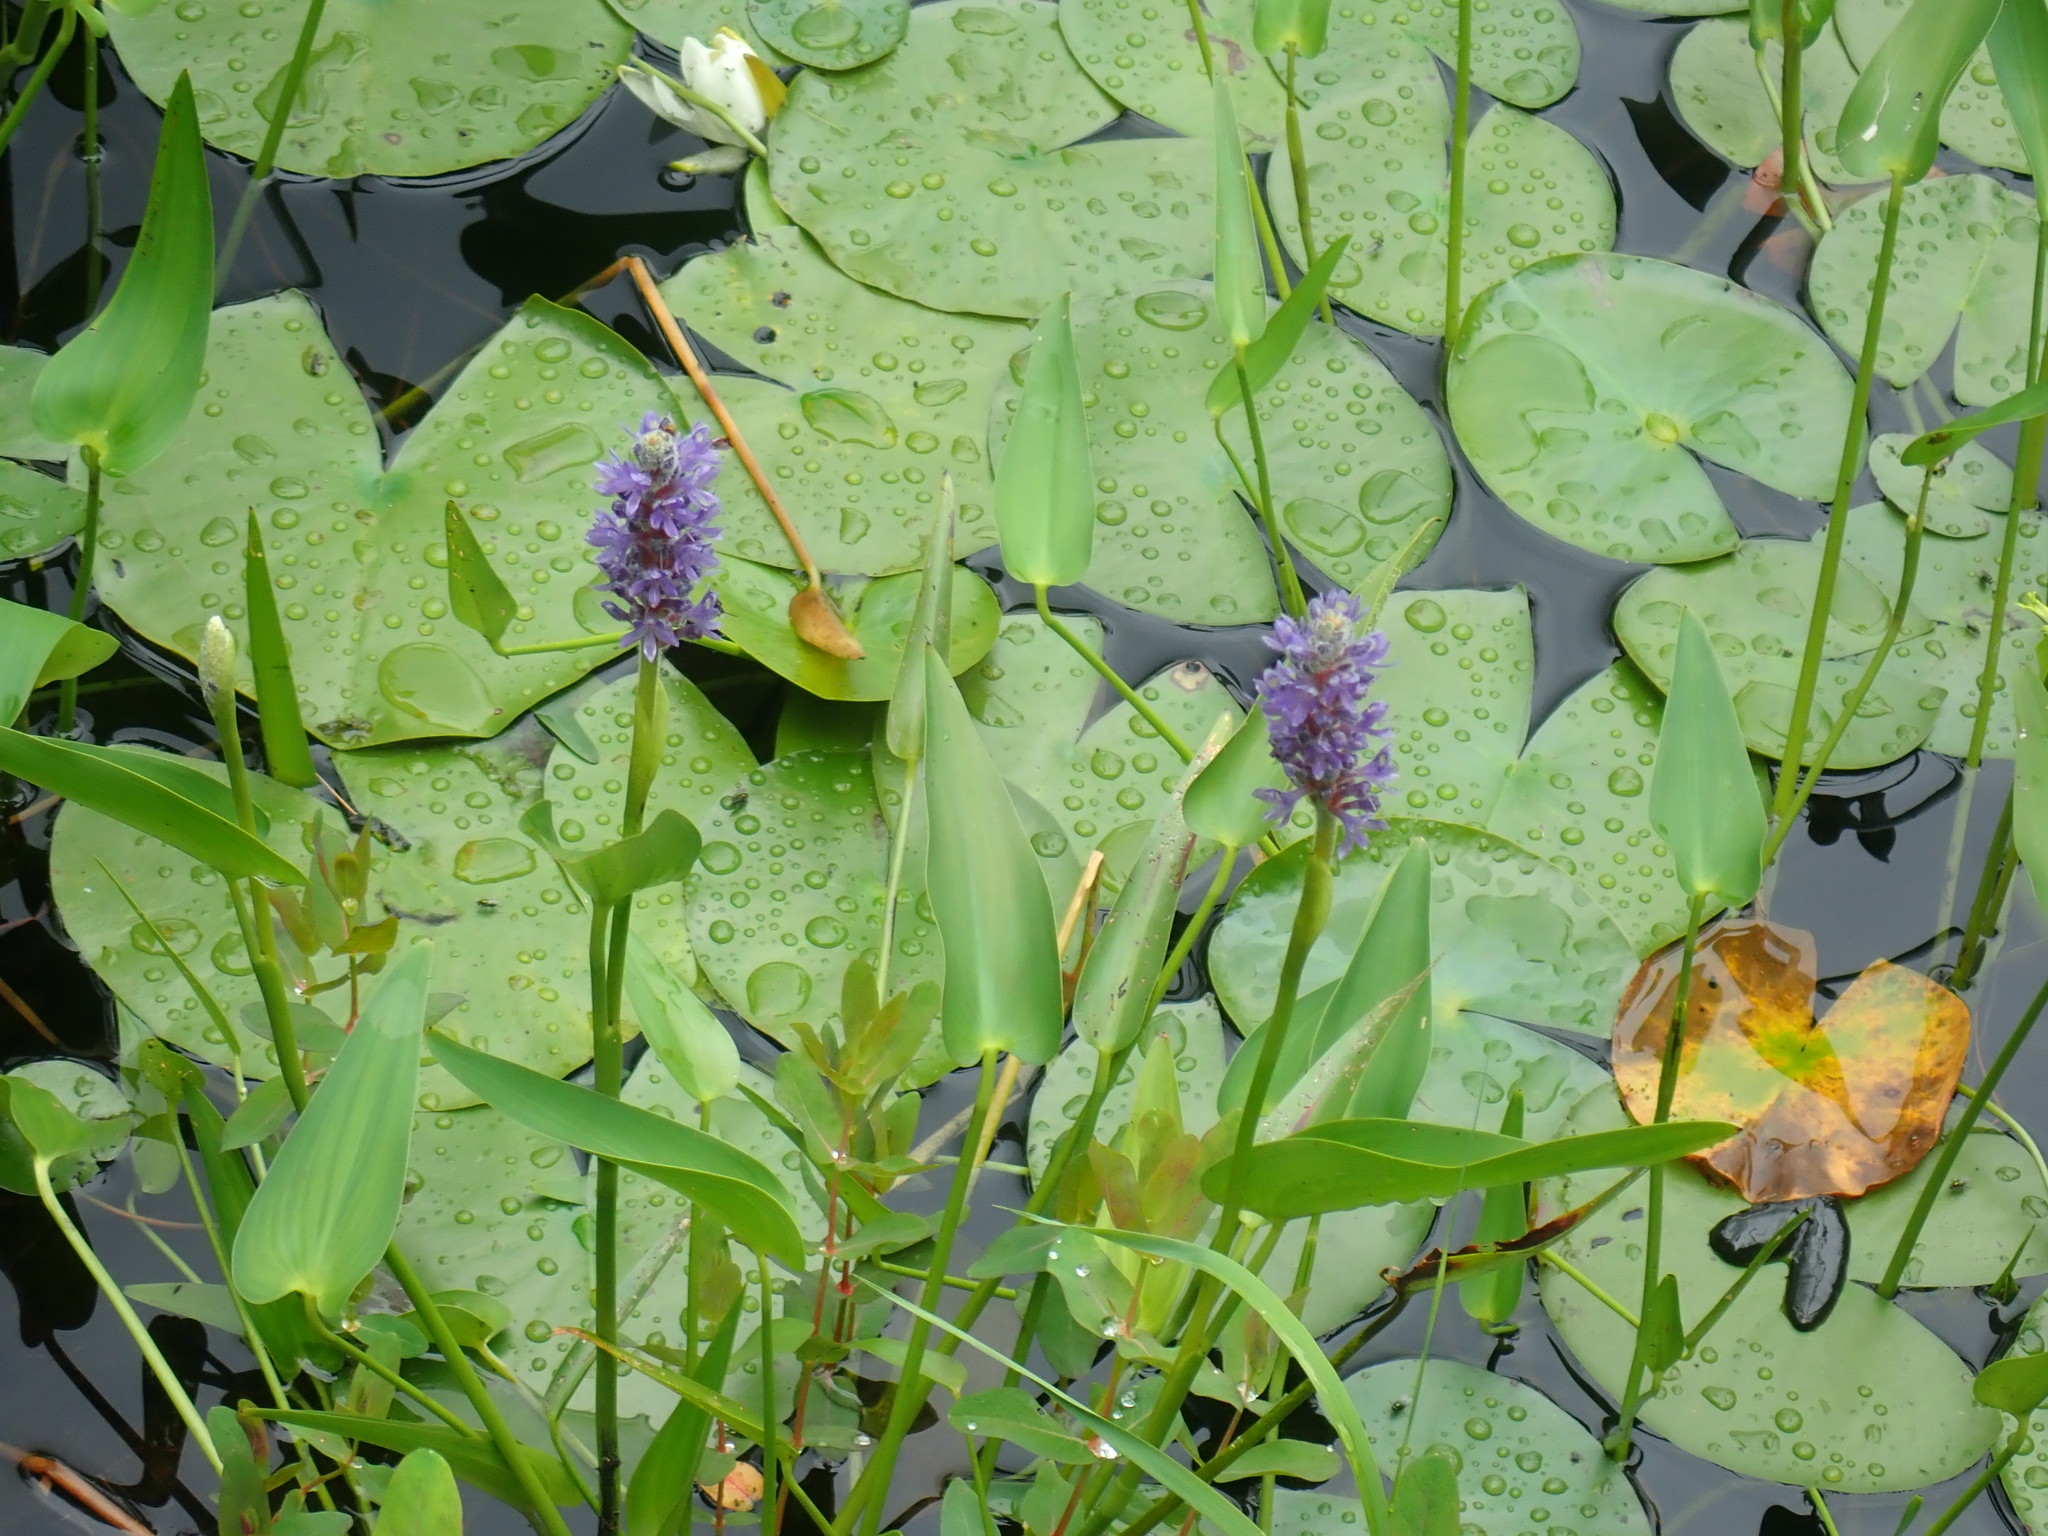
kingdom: Plantae
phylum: Tracheophyta
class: Liliopsida
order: Commelinales
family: Pontederiaceae
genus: Pontederia
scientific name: Pontederia cordata
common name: Pickerelweed
